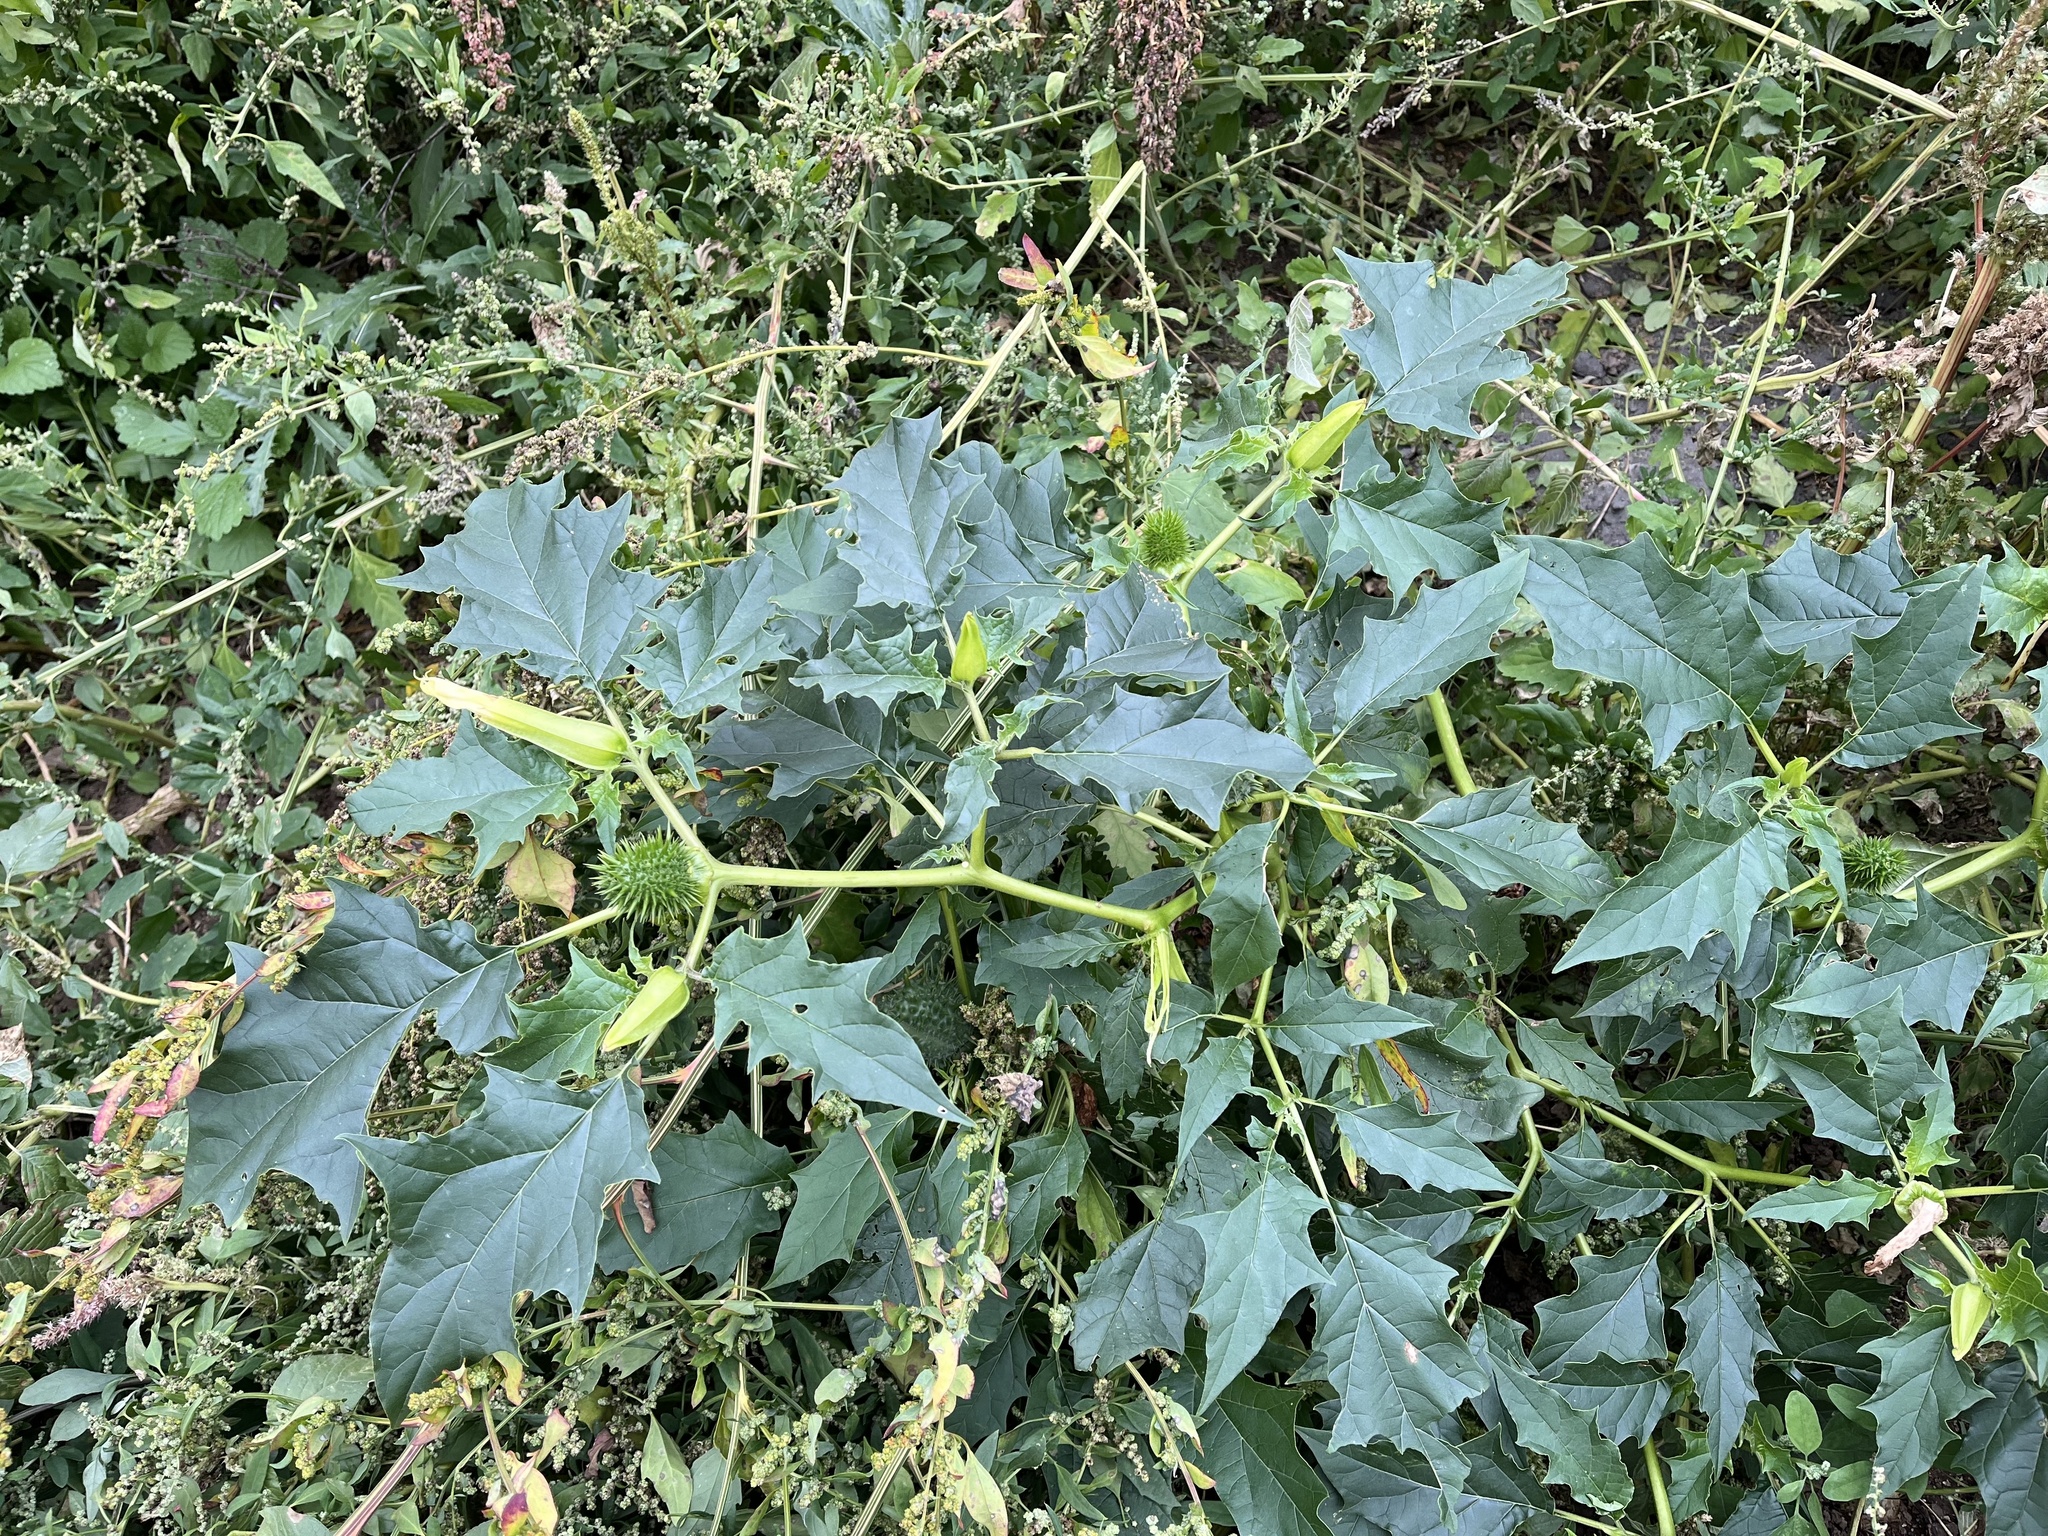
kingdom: Plantae
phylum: Tracheophyta
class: Magnoliopsida
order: Solanales
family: Solanaceae
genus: Datura
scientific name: Datura stramonium
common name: Thorn-apple
